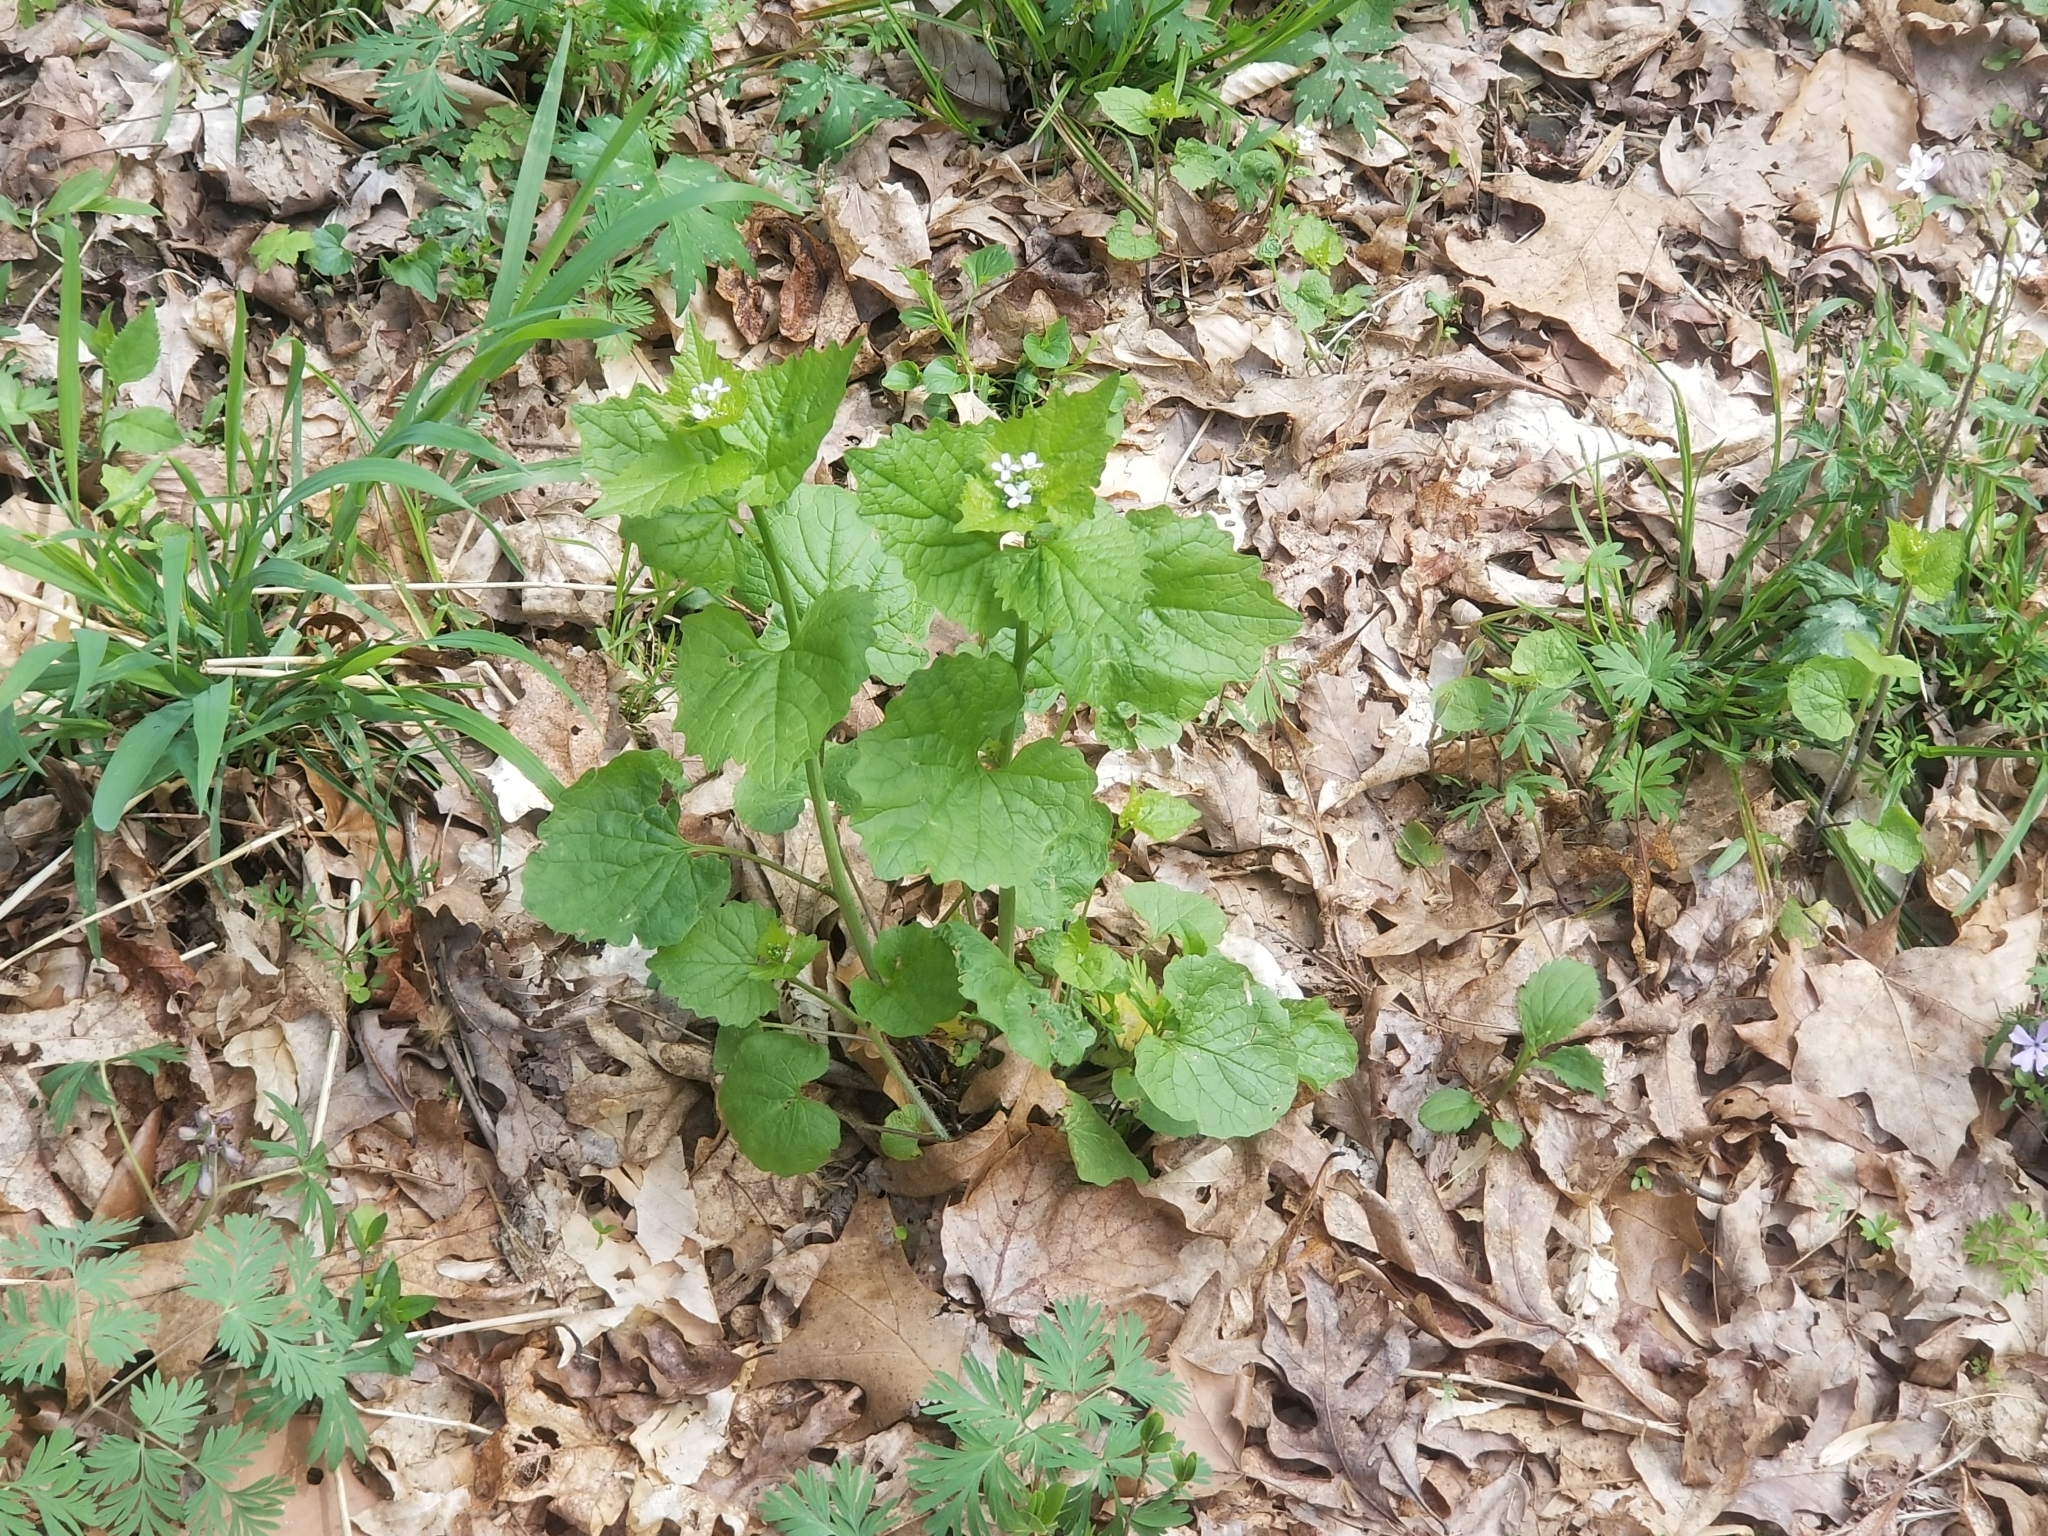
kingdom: Plantae
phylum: Tracheophyta
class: Magnoliopsida
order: Brassicales
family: Brassicaceae
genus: Alliaria
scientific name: Alliaria petiolata
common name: Garlic mustard
